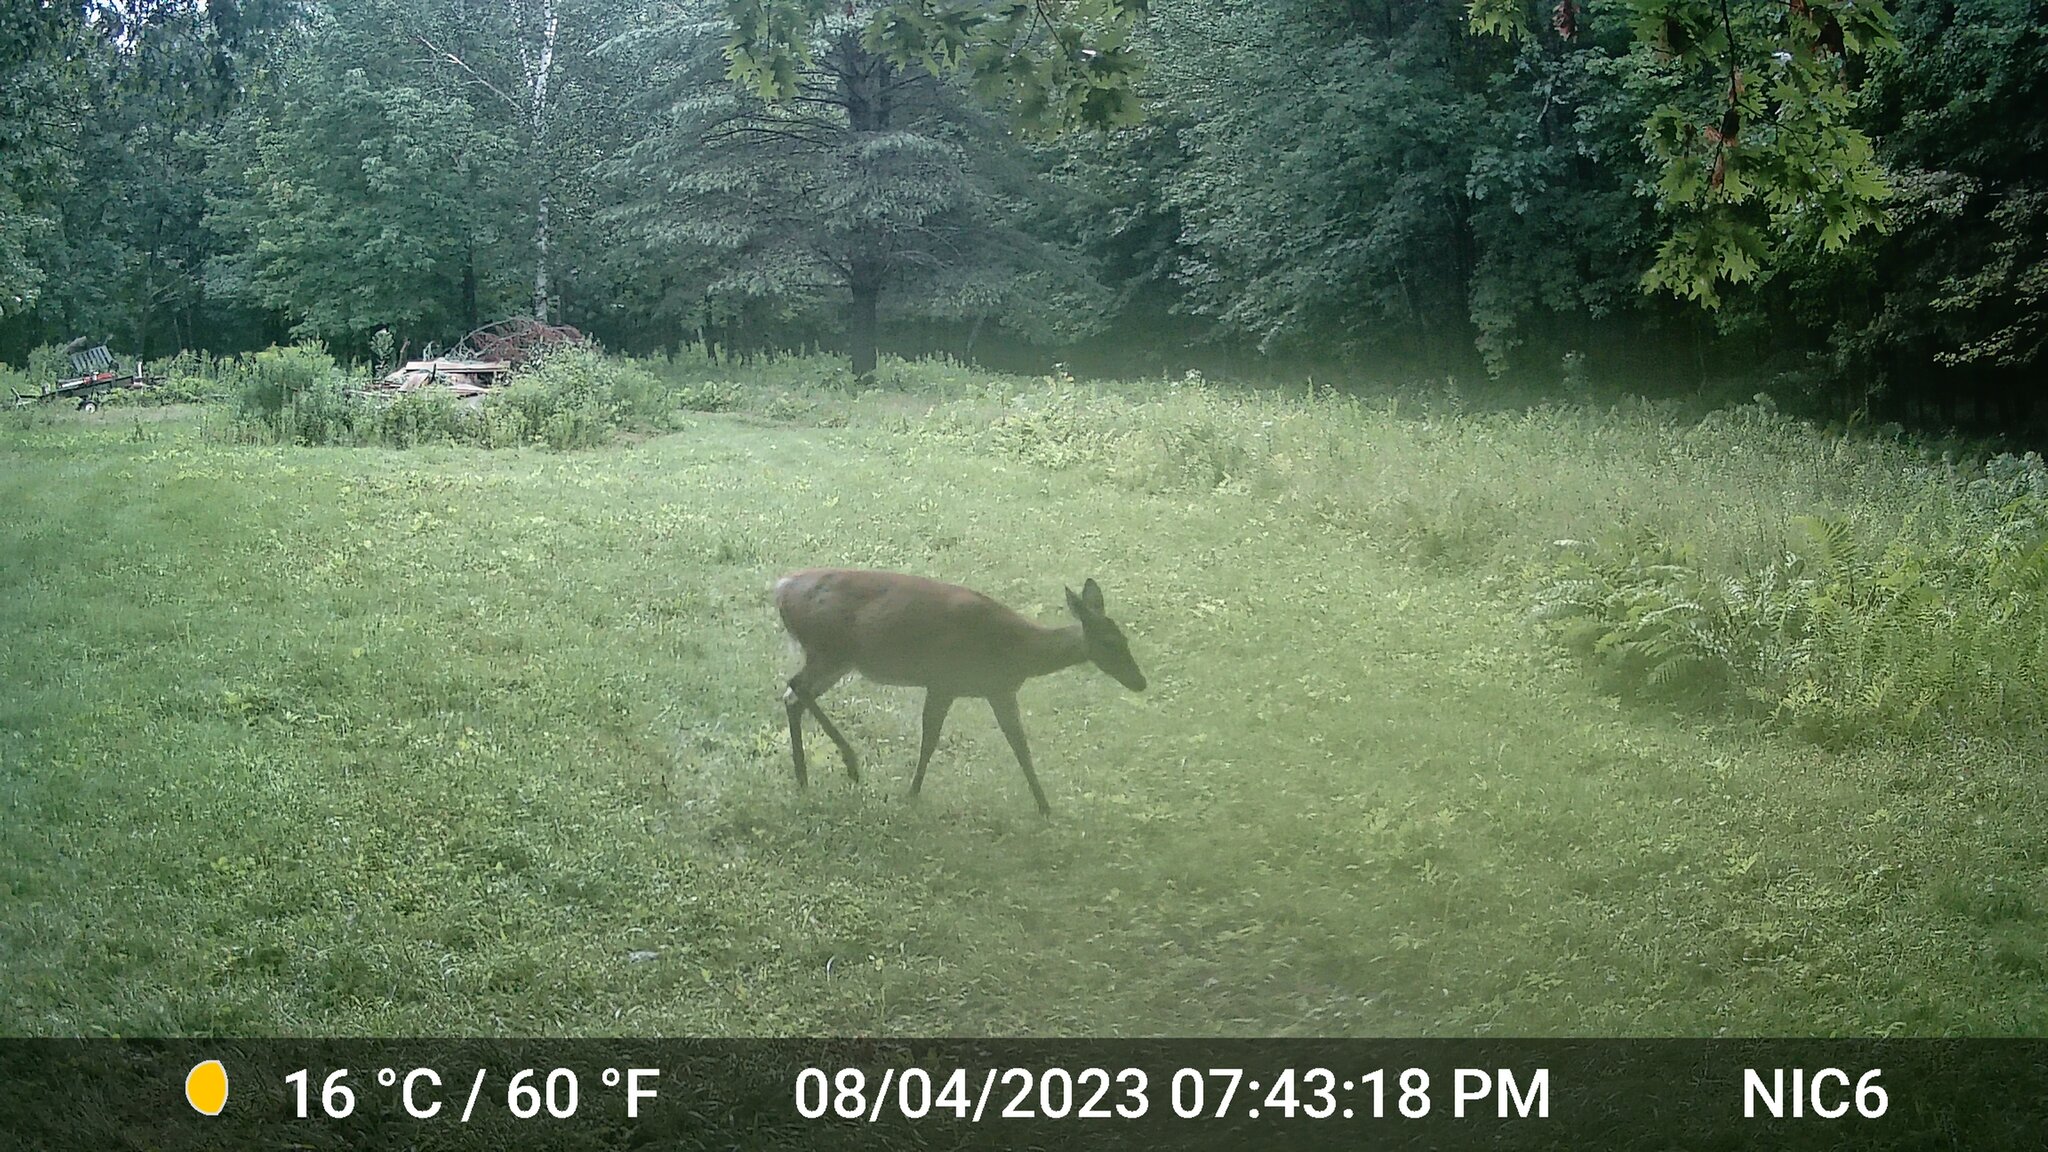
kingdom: Animalia
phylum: Chordata
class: Mammalia
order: Artiodactyla
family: Cervidae
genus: Odocoileus
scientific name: Odocoileus virginianus
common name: White-tailed deer
